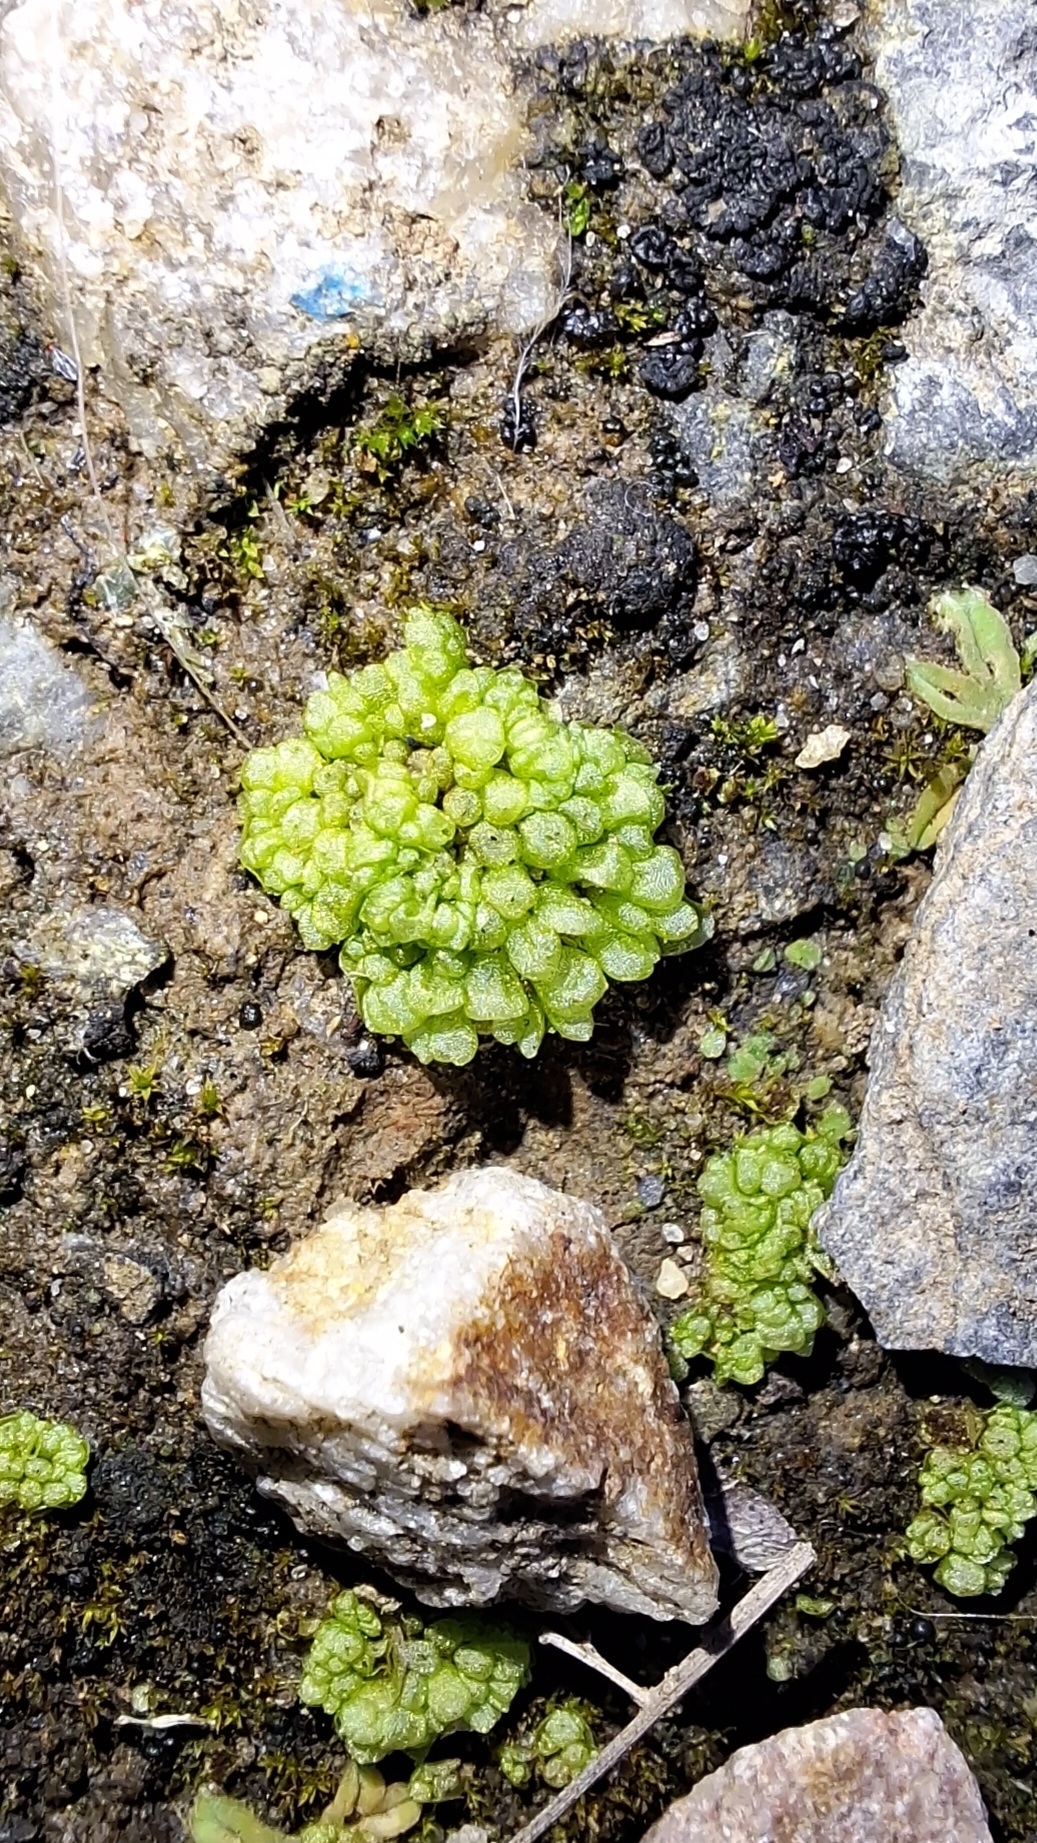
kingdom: Plantae
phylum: Marchantiophyta
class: Marchantiopsida
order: Sphaerocarpales
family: Sphaerocarpaceae
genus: Sphaerocarpos
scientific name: Sphaerocarpos texanus
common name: Texas balloonwort
